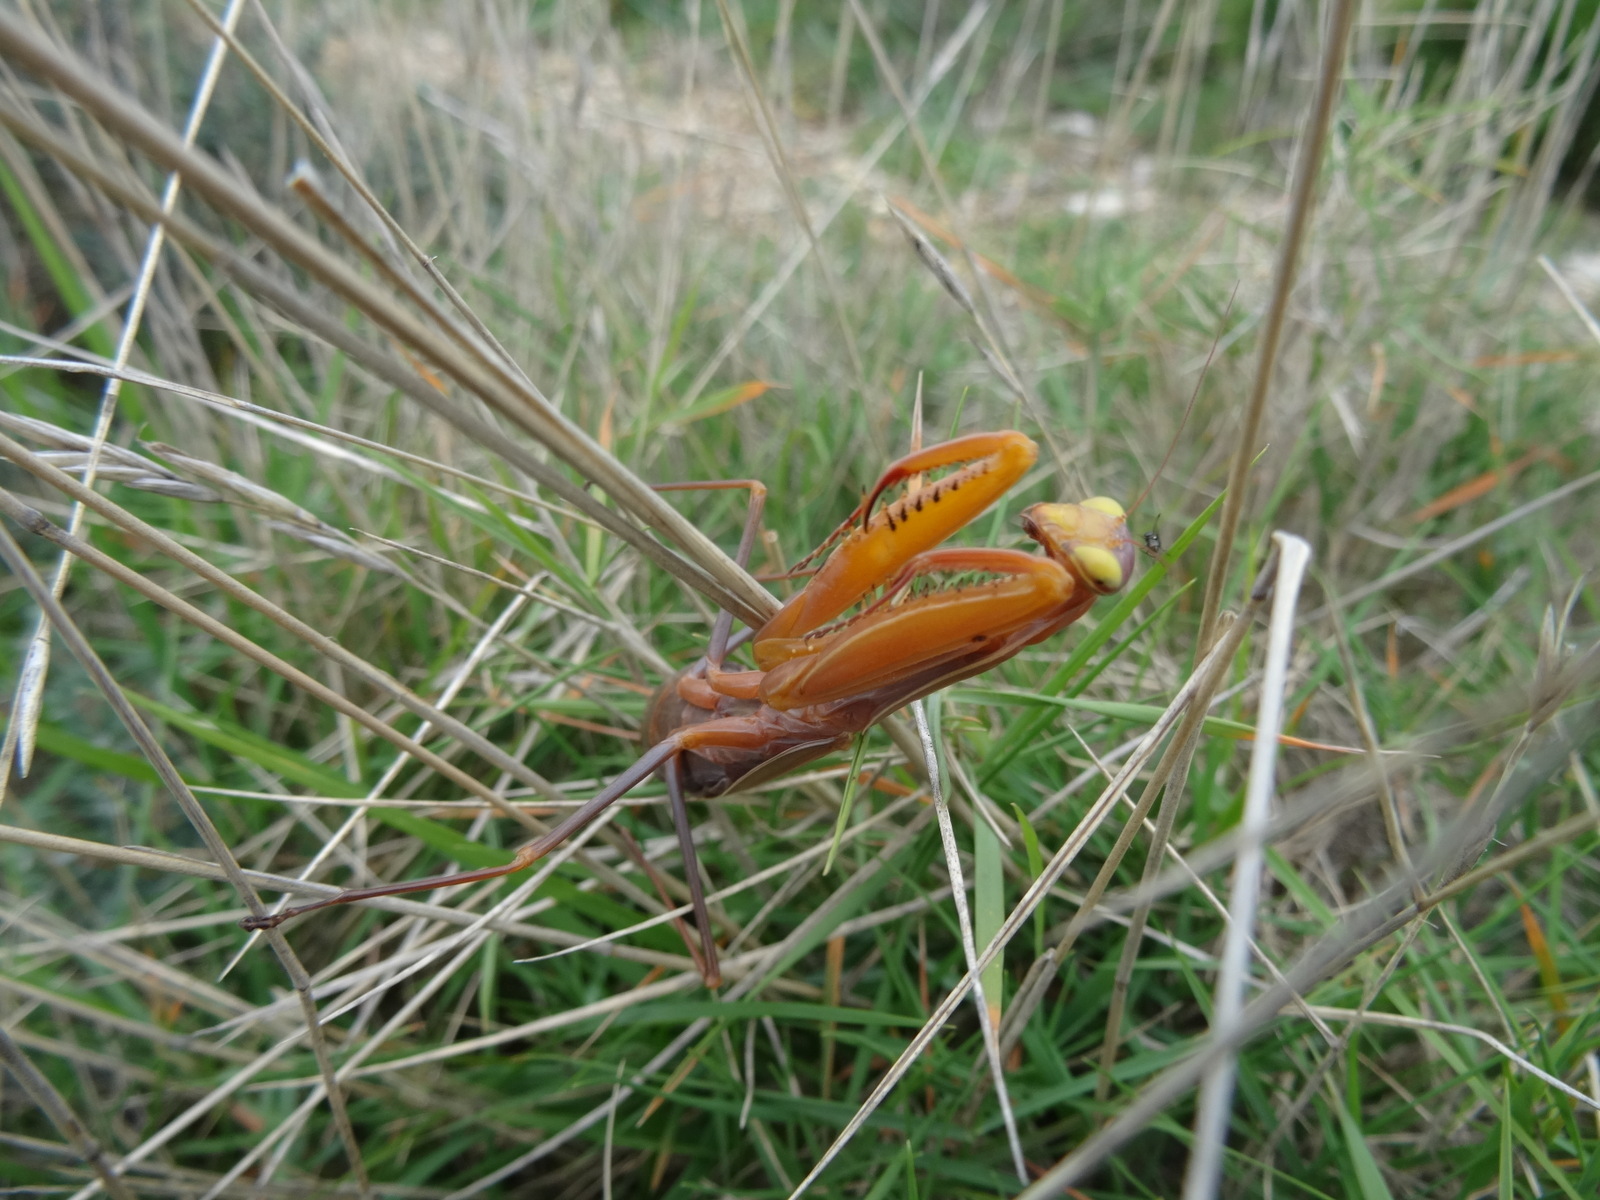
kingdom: Animalia
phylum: Arthropoda
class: Insecta
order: Mantodea
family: Mantidae
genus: Mantis
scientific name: Mantis religiosa
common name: Praying mantis
